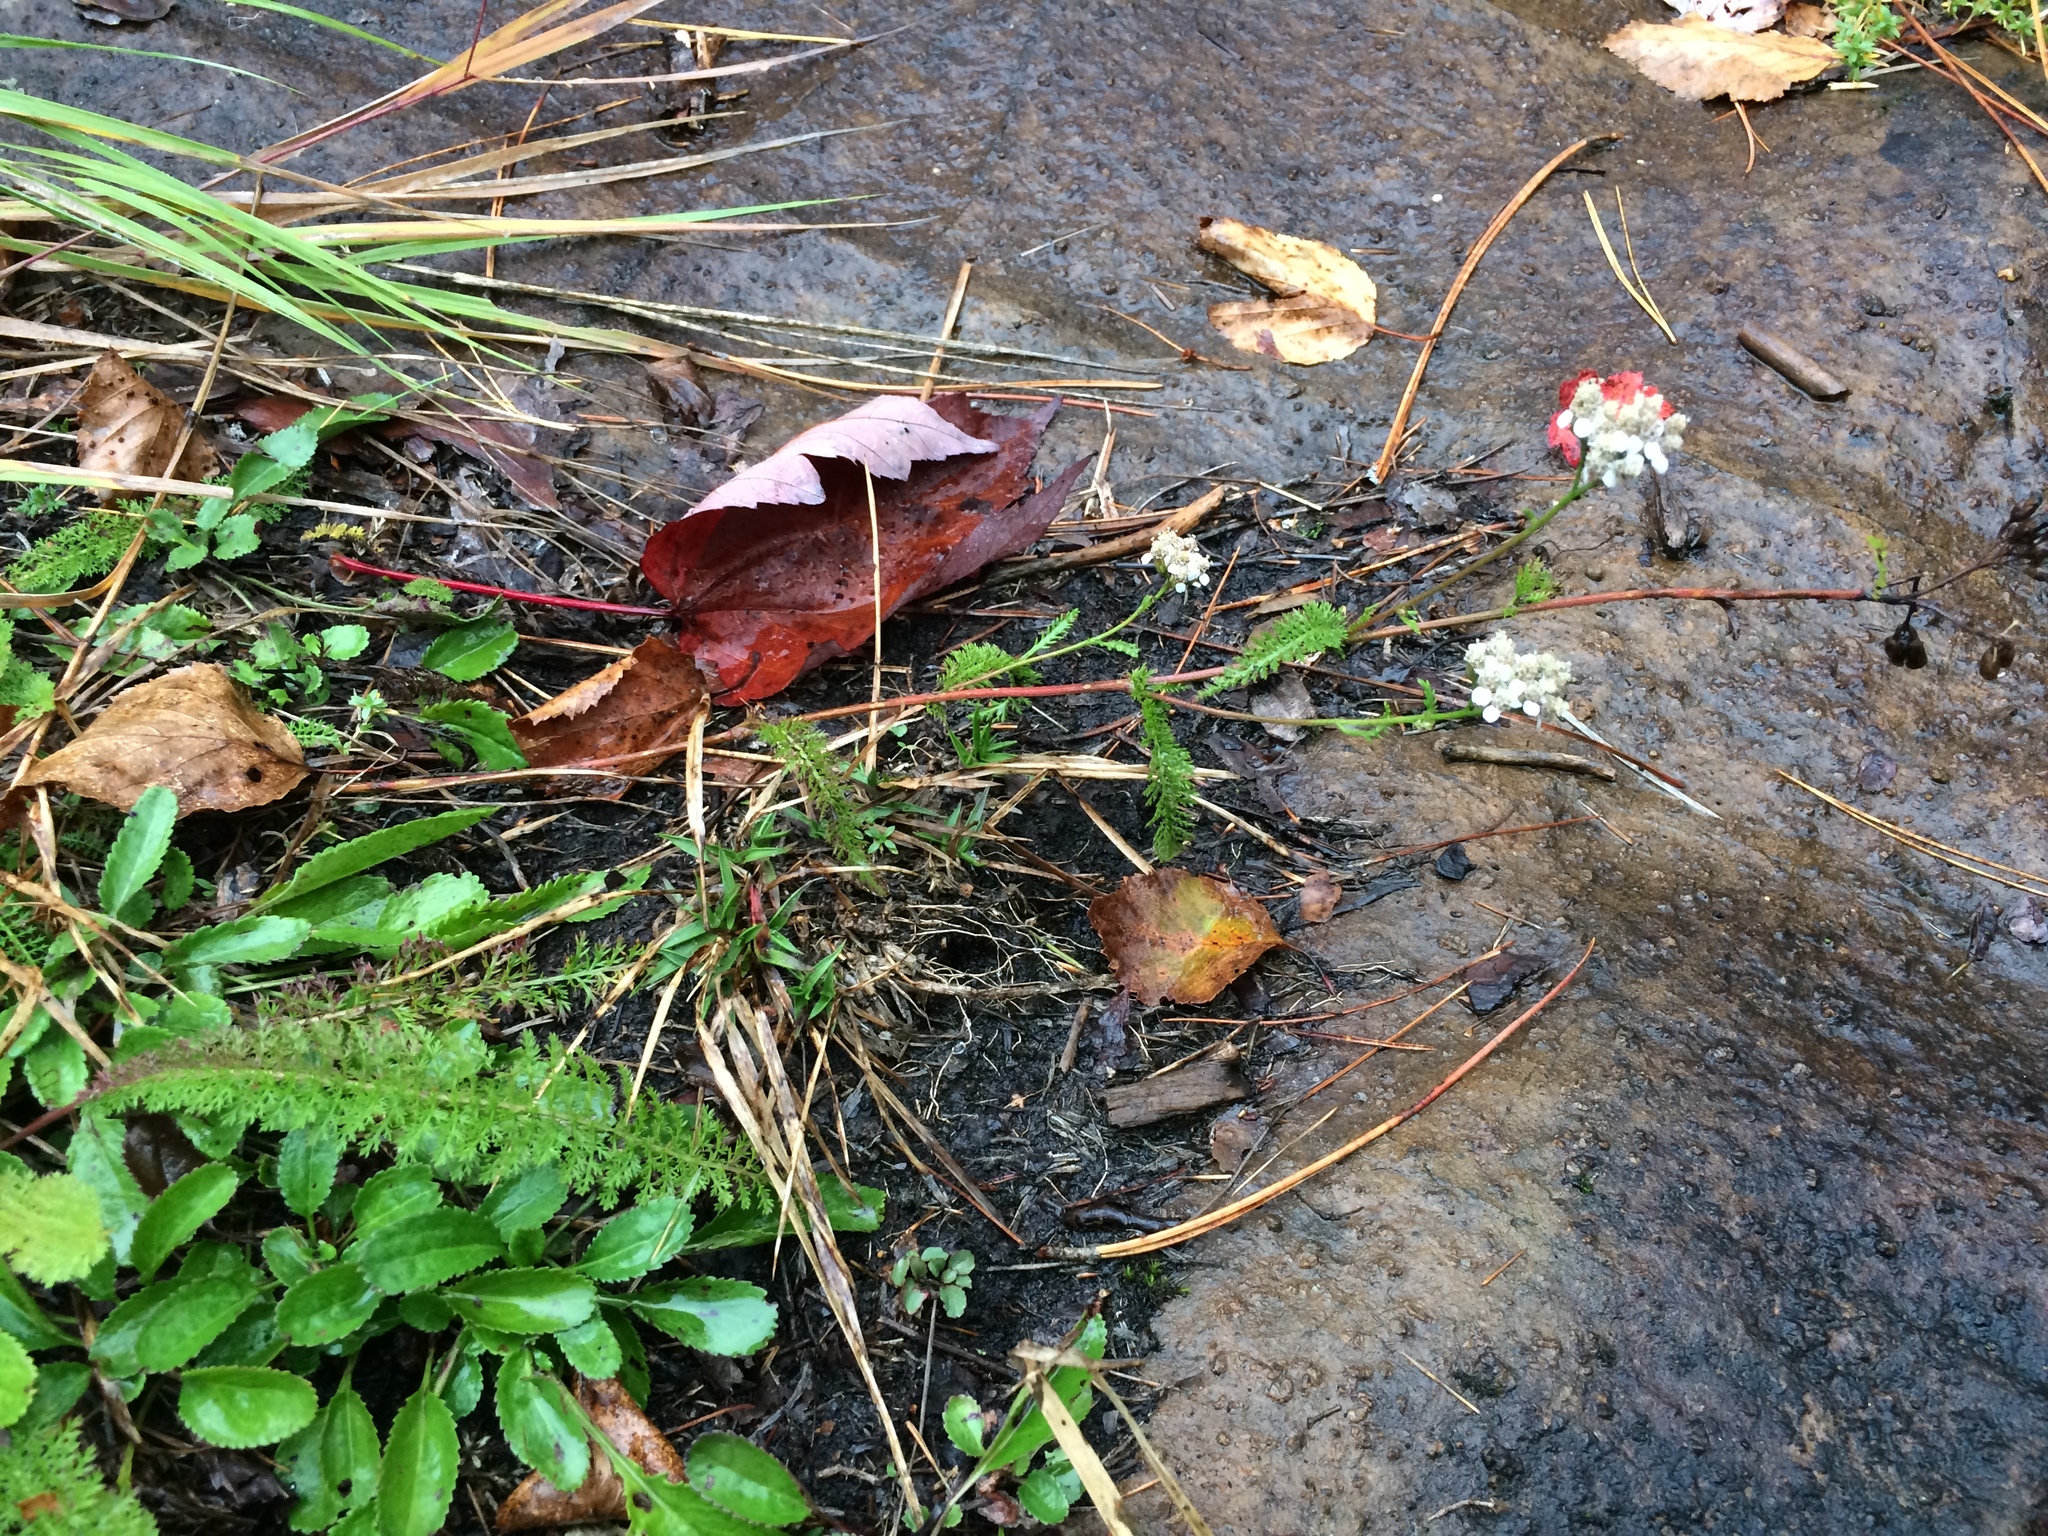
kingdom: Plantae
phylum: Tracheophyta
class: Magnoliopsida
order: Asterales
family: Asteraceae
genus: Achillea
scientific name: Achillea millefolium
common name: Yarrow
